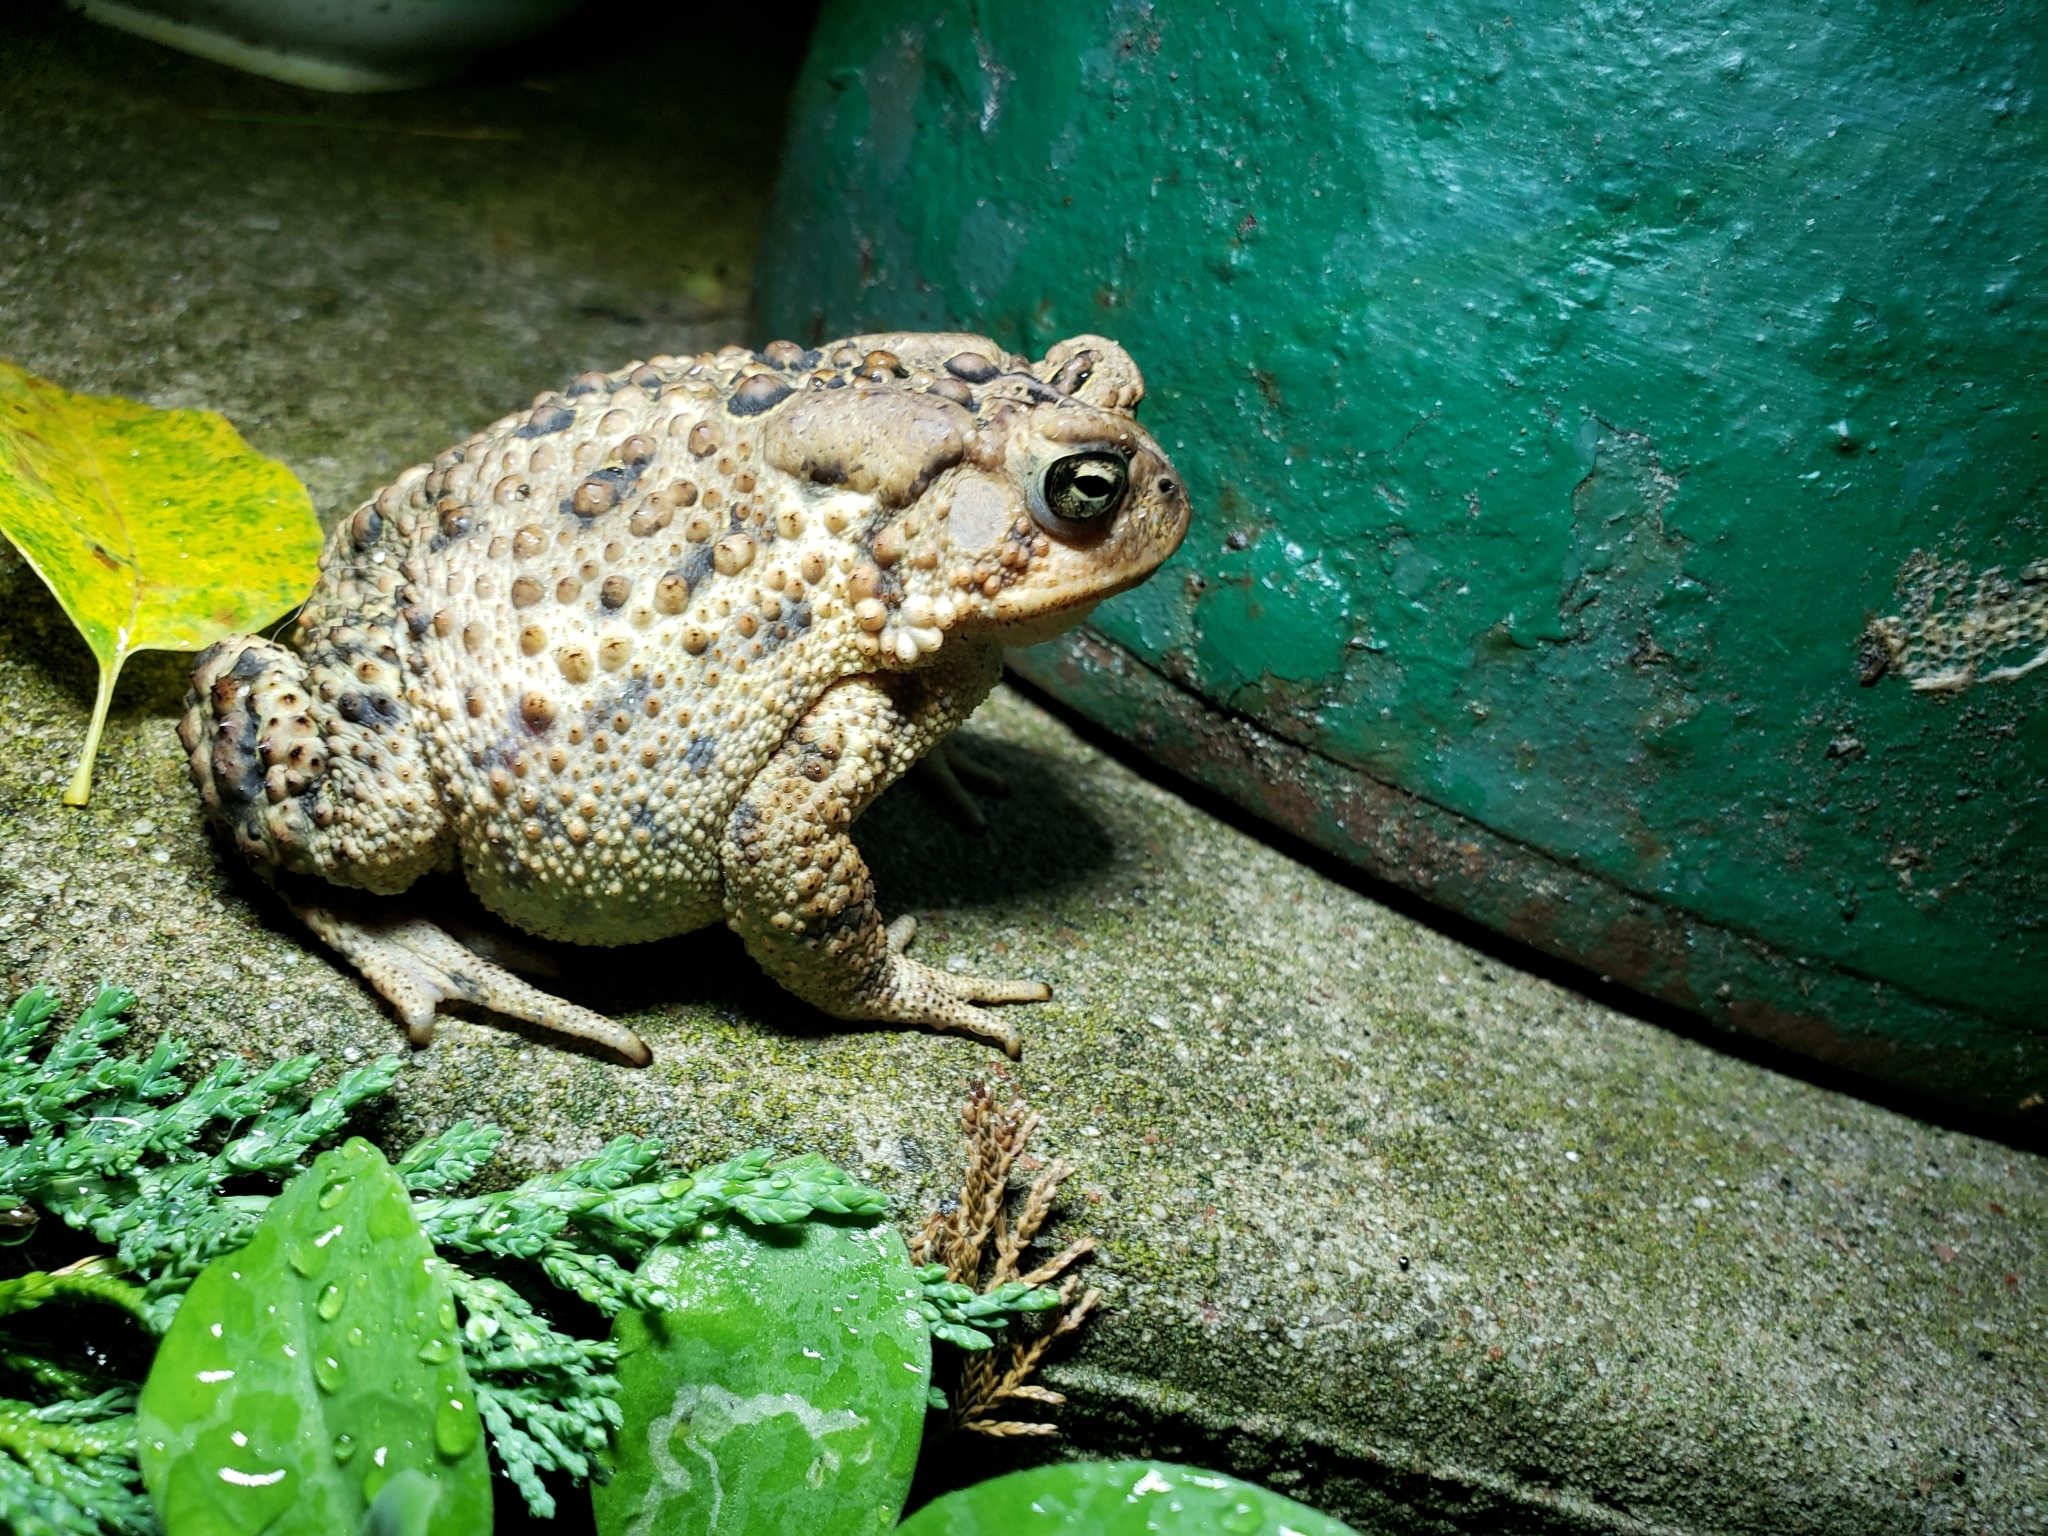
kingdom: Animalia
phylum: Chordata
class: Amphibia
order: Anura
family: Bufonidae
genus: Anaxyrus
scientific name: Anaxyrus americanus
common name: American toad
